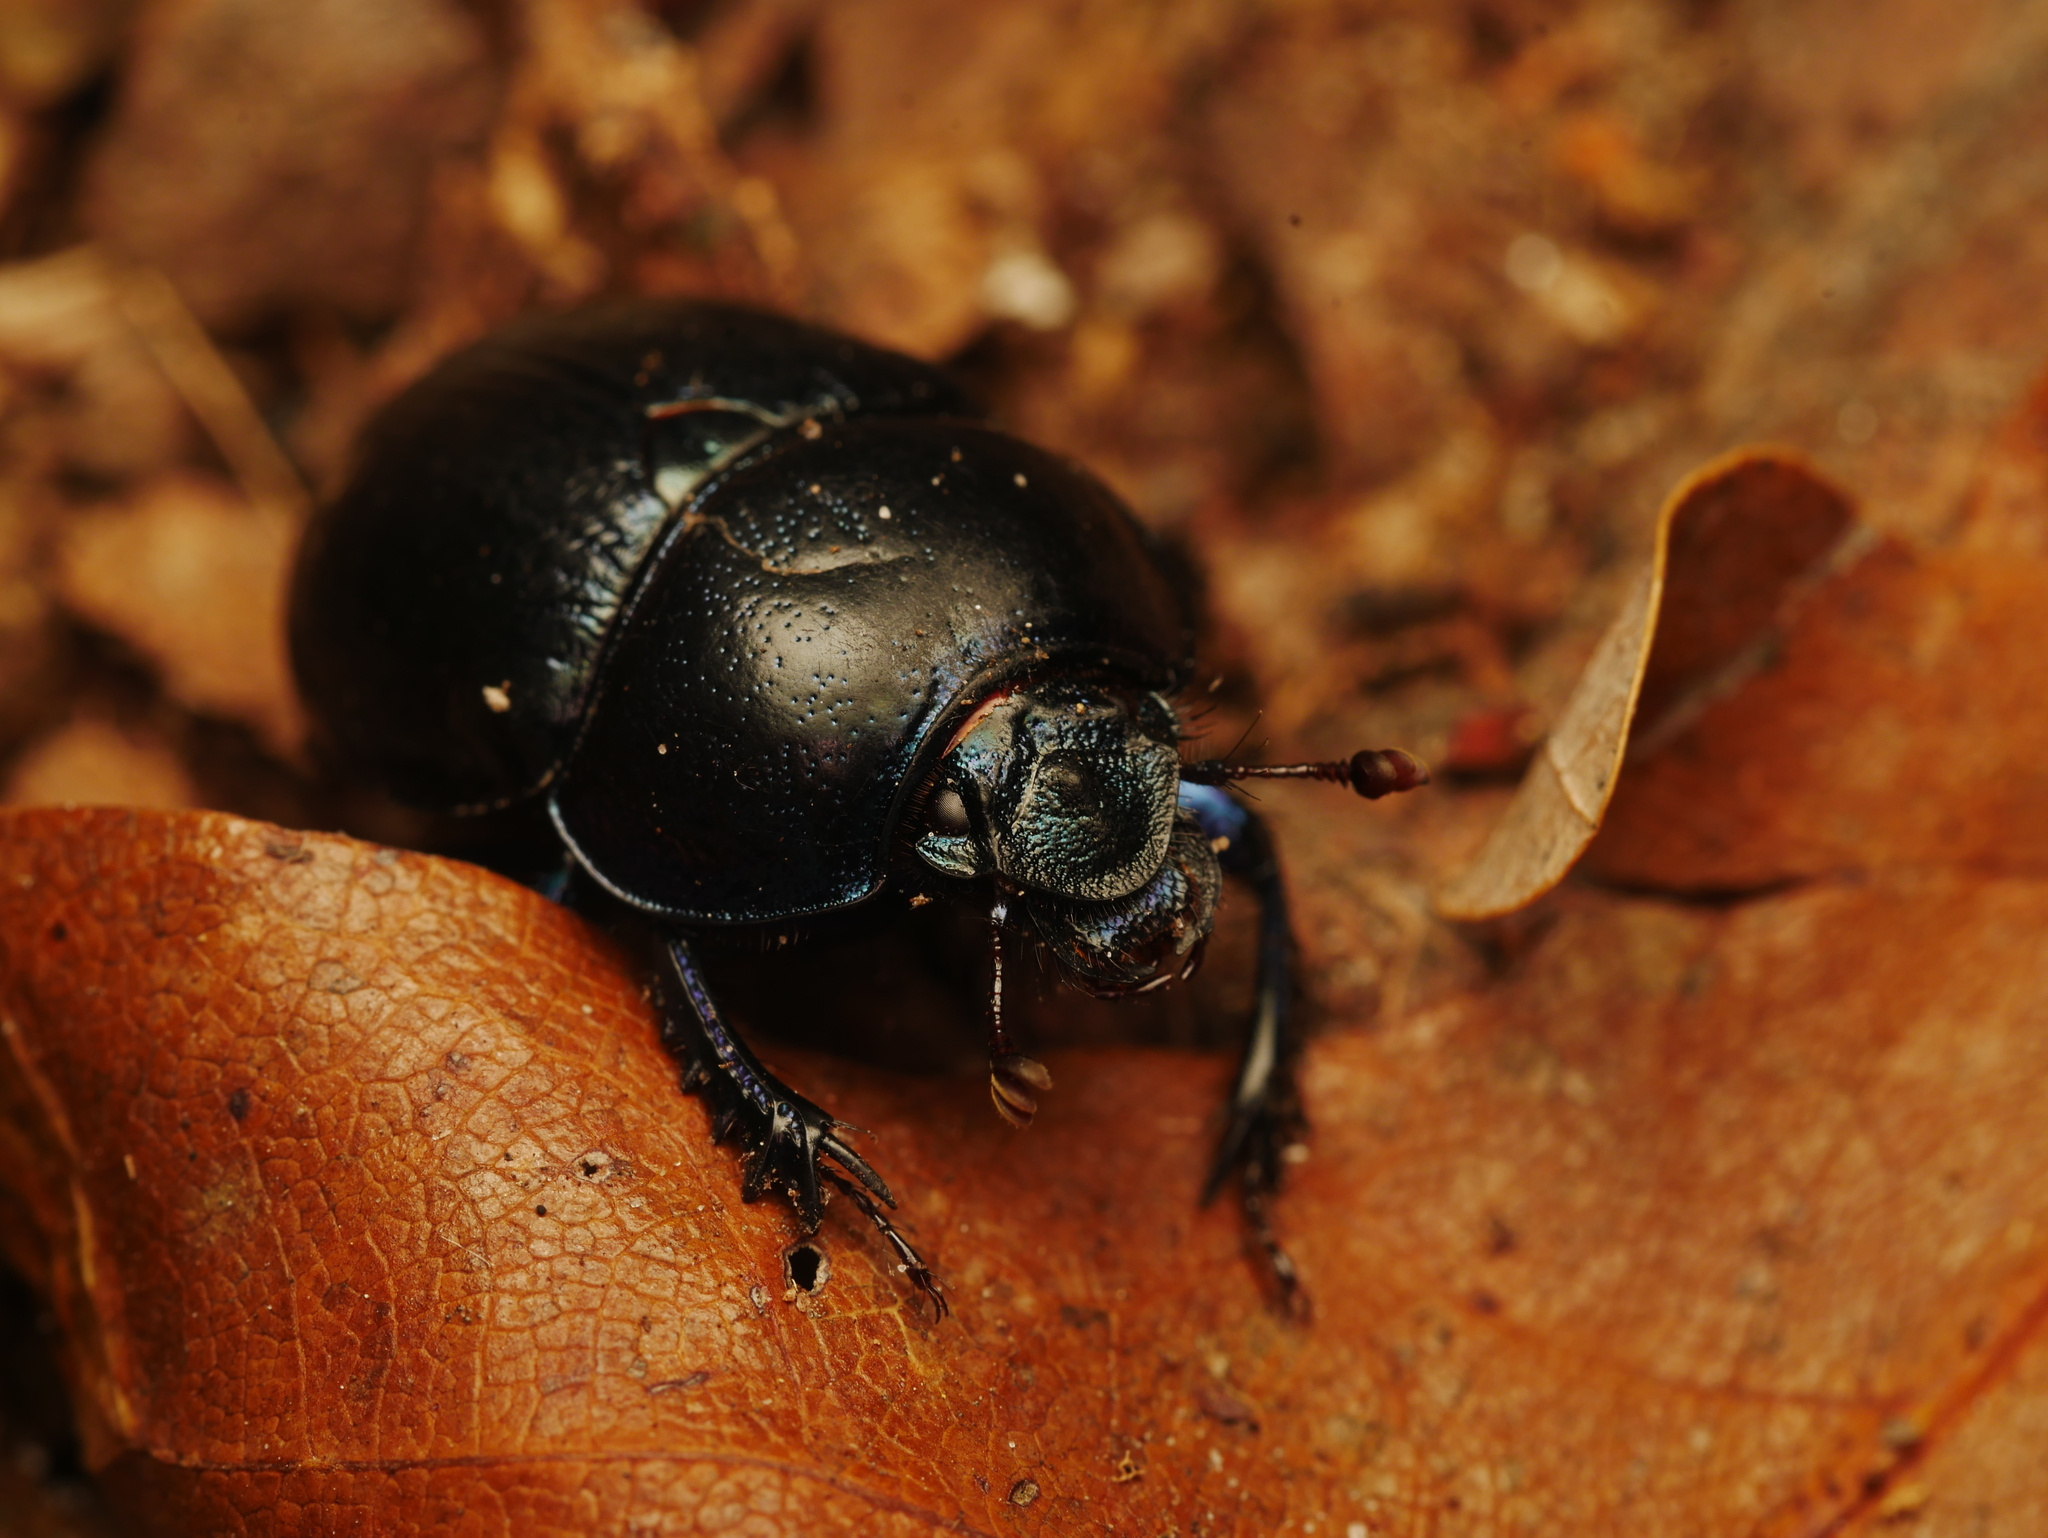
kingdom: Animalia
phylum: Arthropoda
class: Insecta
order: Coleoptera
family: Geotrupidae
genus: Anoplotrupes
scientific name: Anoplotrupes stercorosus
